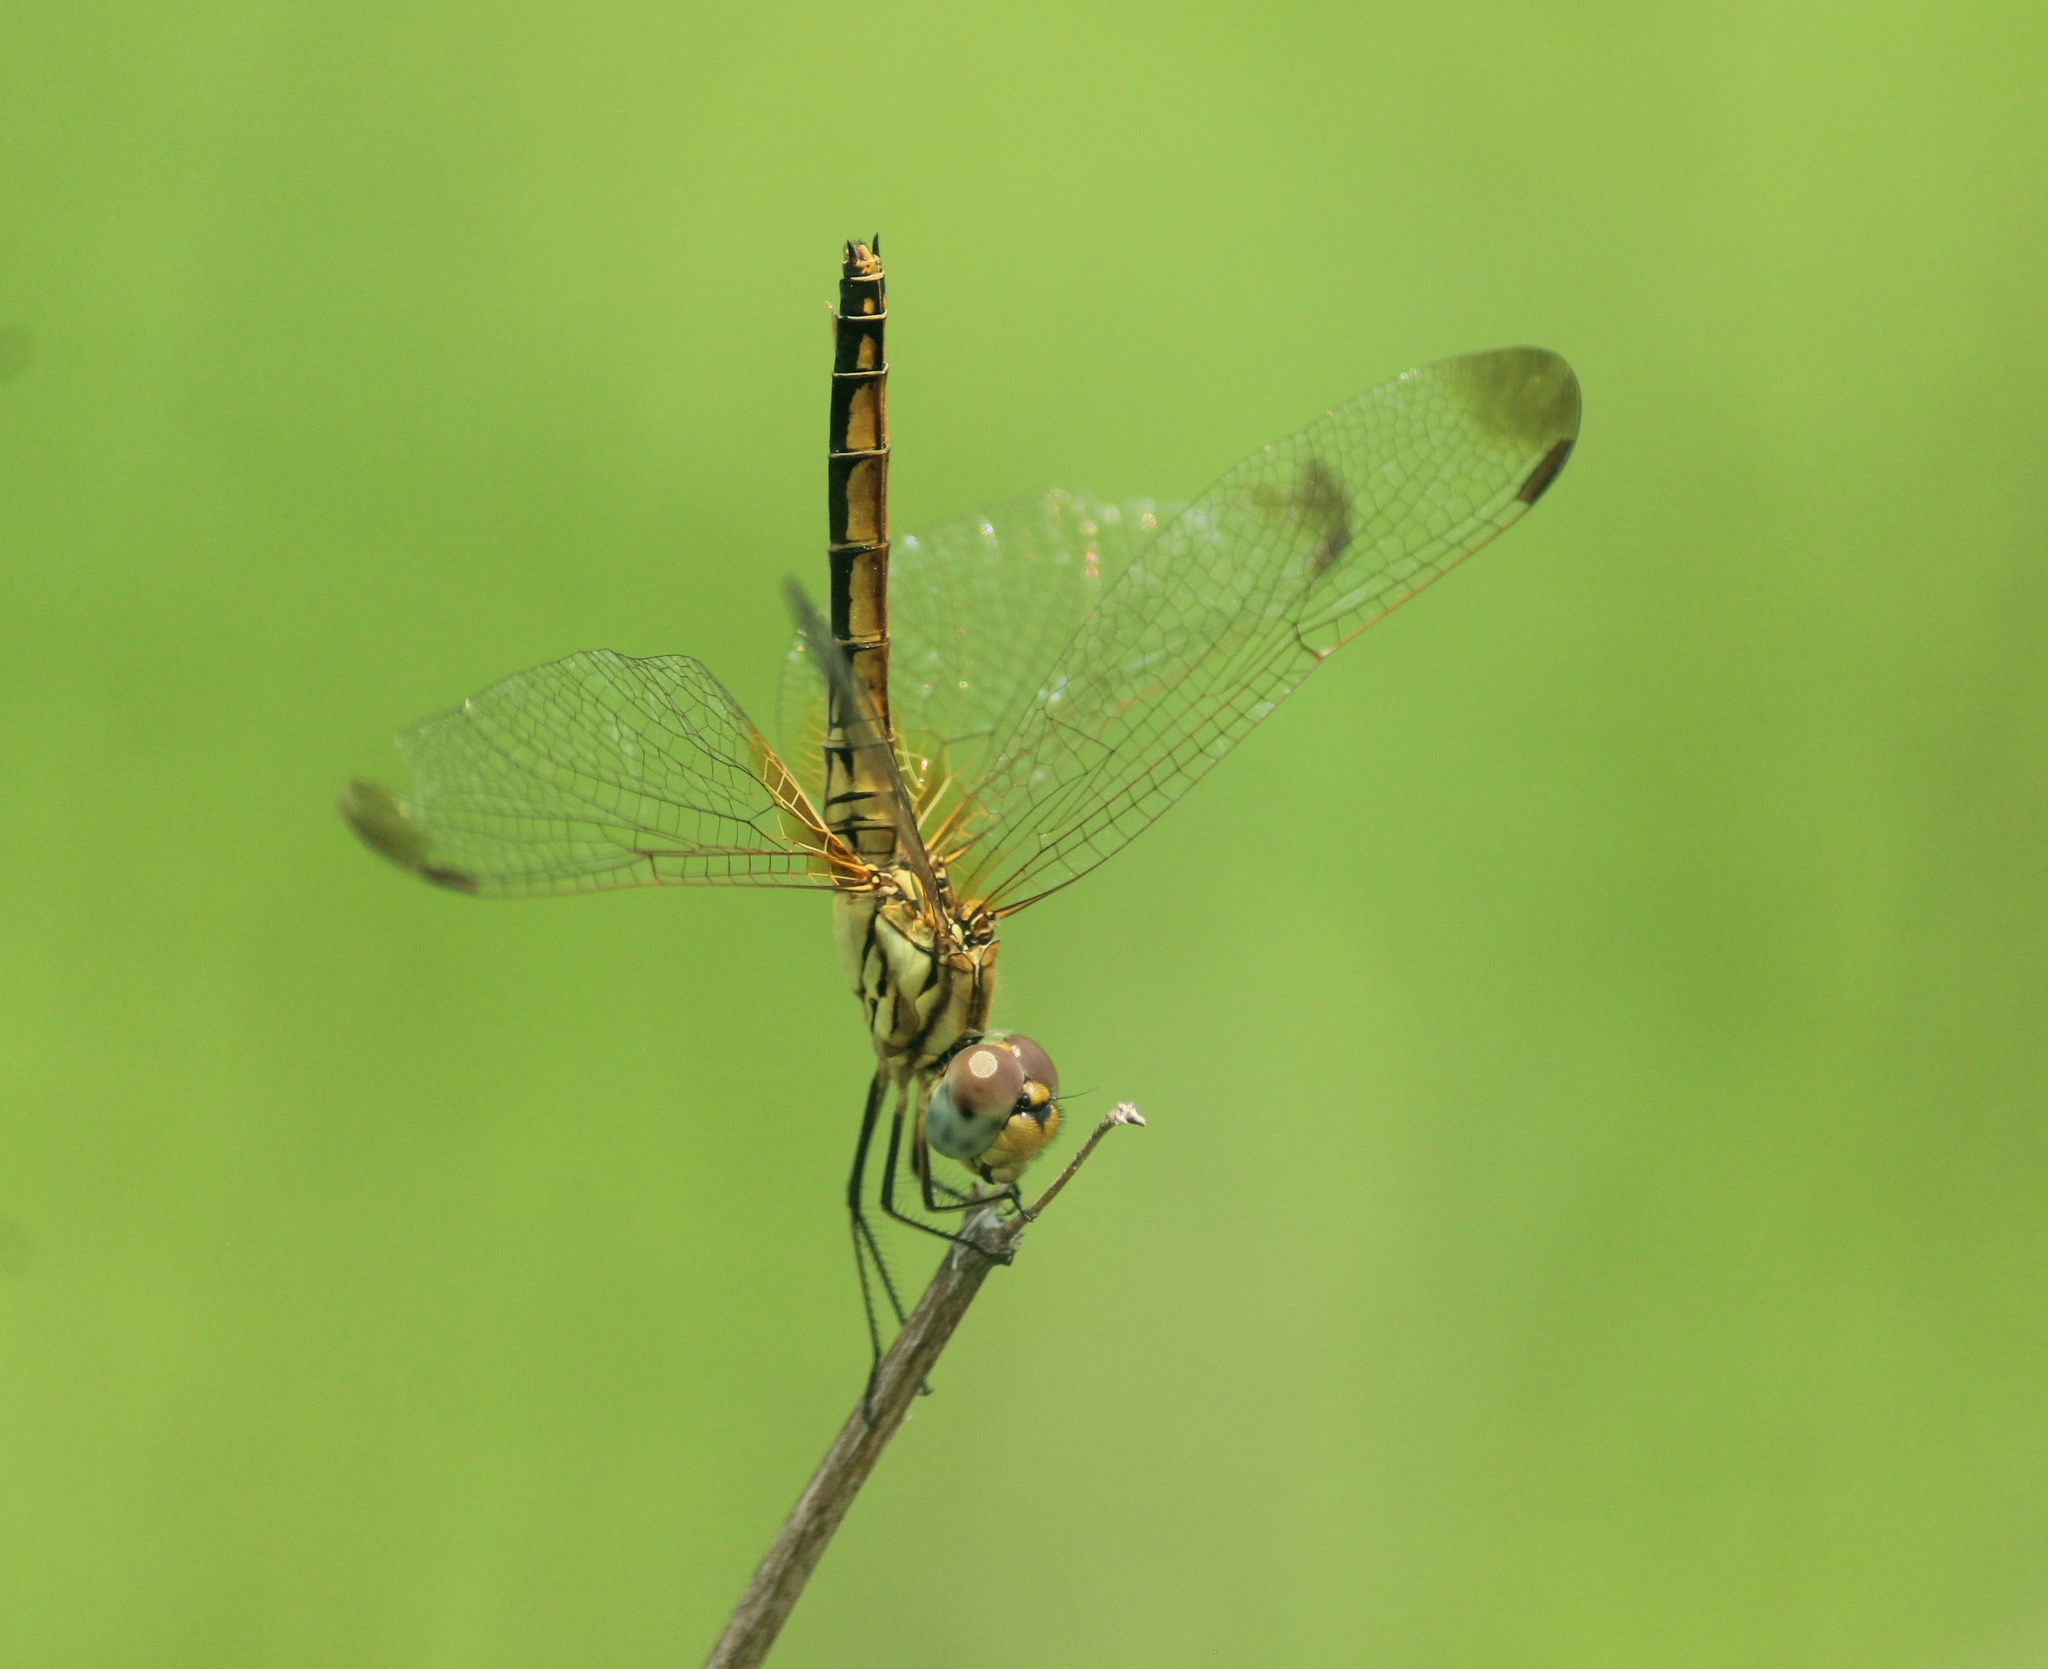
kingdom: Animalia
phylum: Arthropoda
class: Insecta
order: Odonata
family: Libellulidae
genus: Trithemis
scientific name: Trithemis aurora
